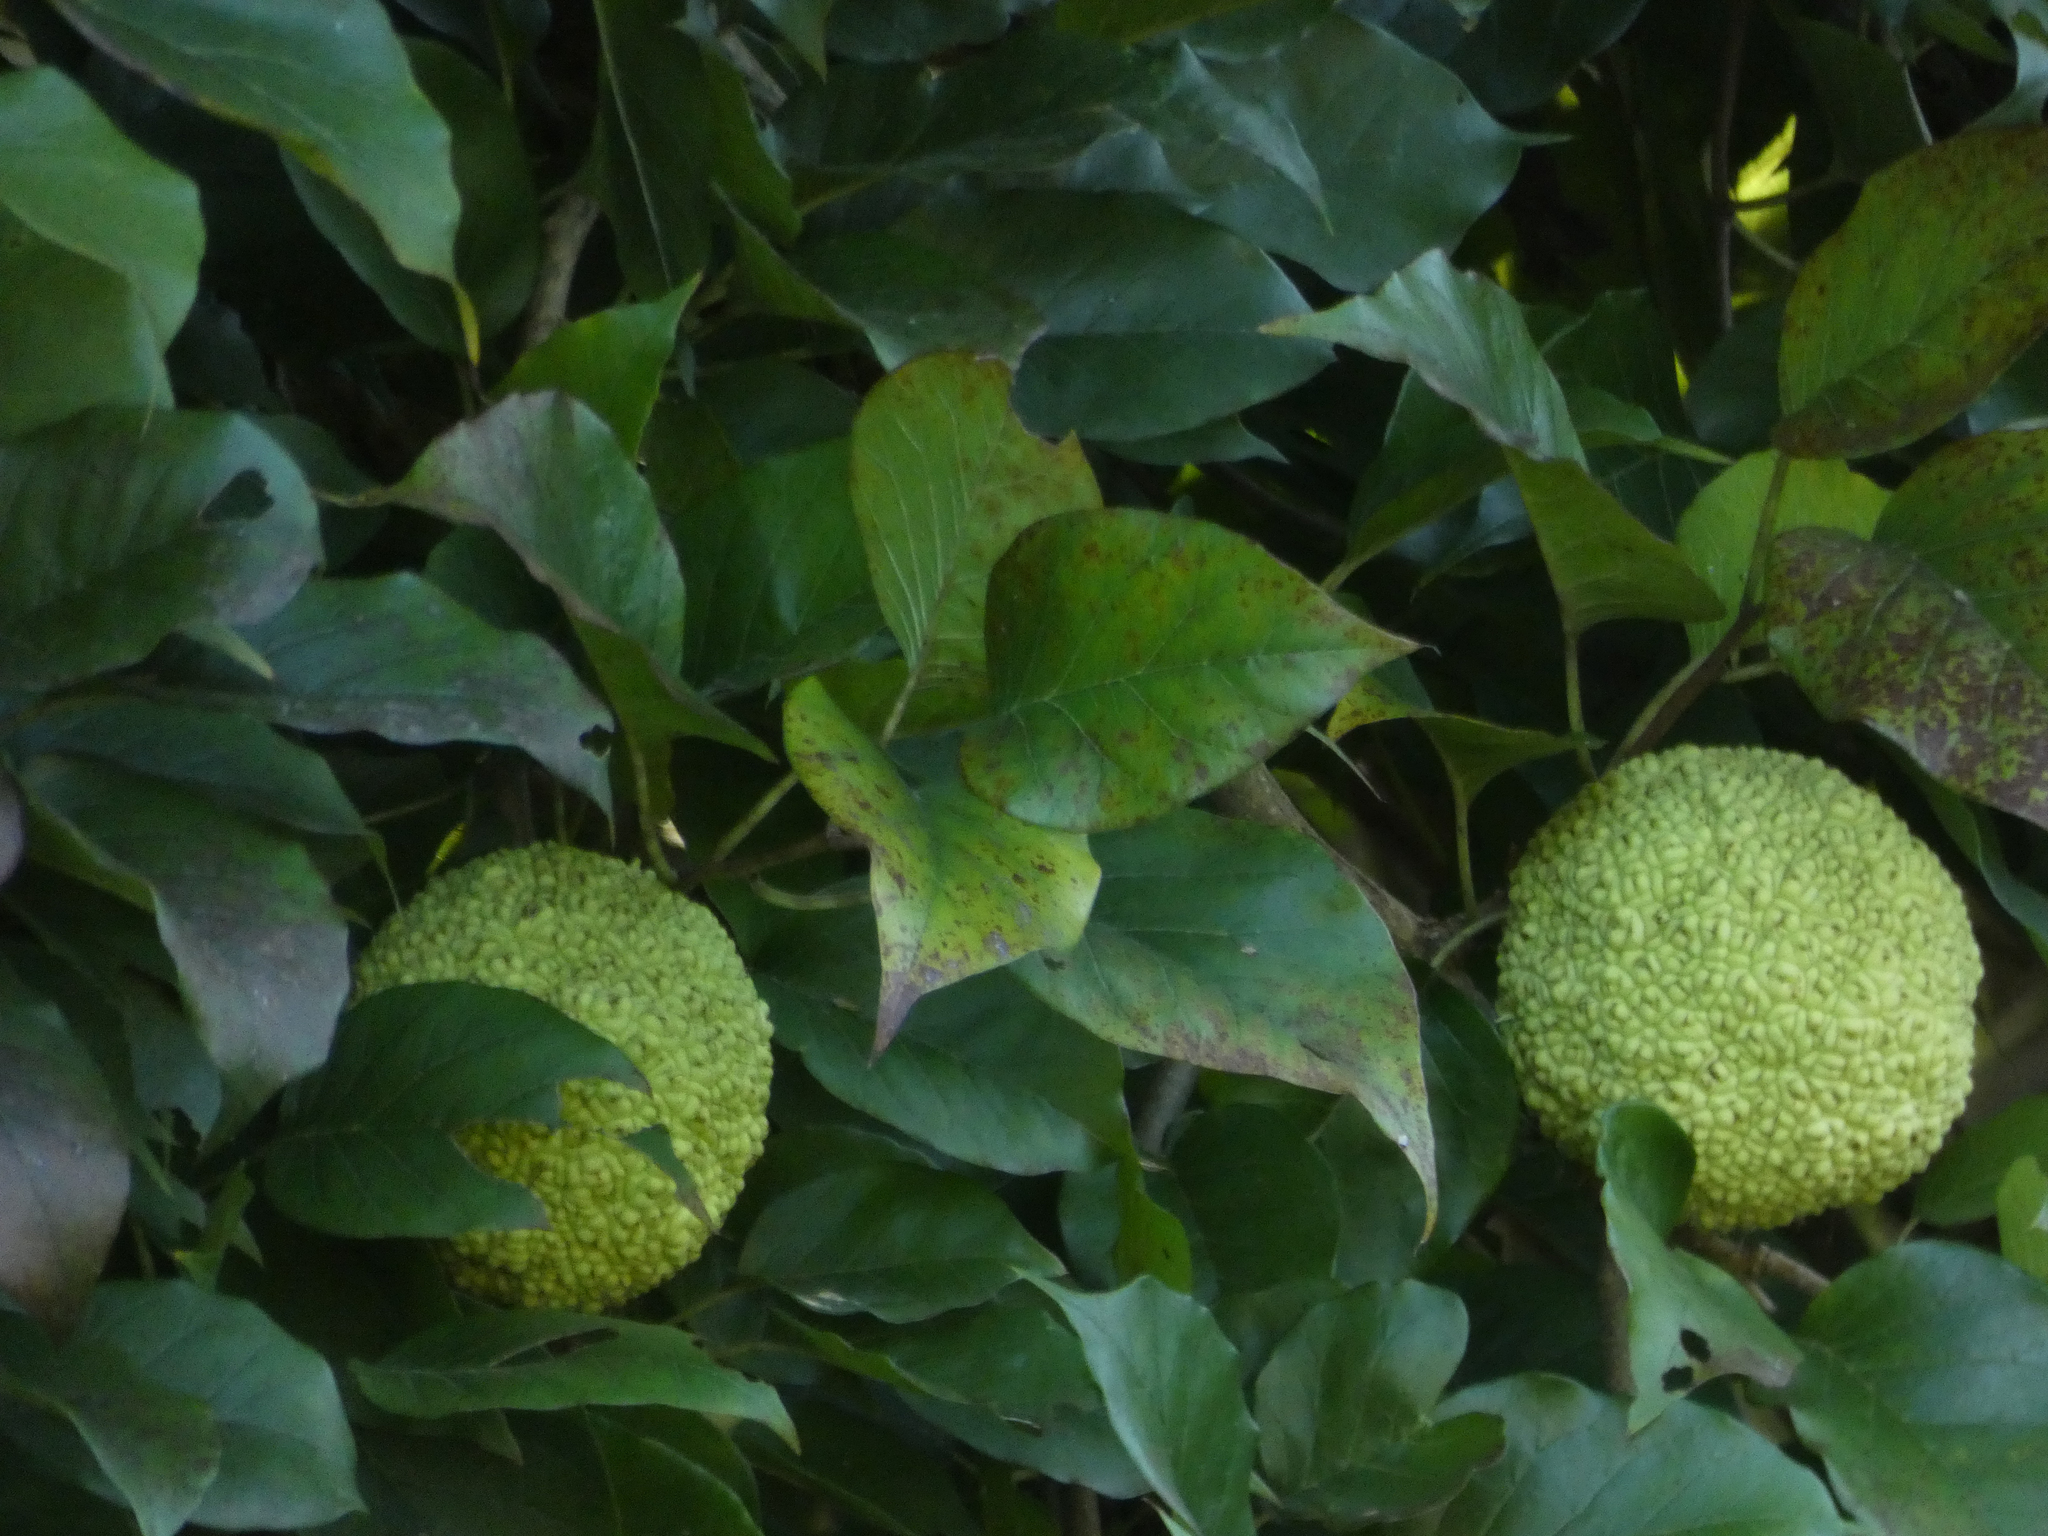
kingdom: Plantae
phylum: Tracheophyta
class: Magnoliopsida
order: Rosales
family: Moraceae
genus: Maclura
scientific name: Maclura pomifera
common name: Osage-orange
